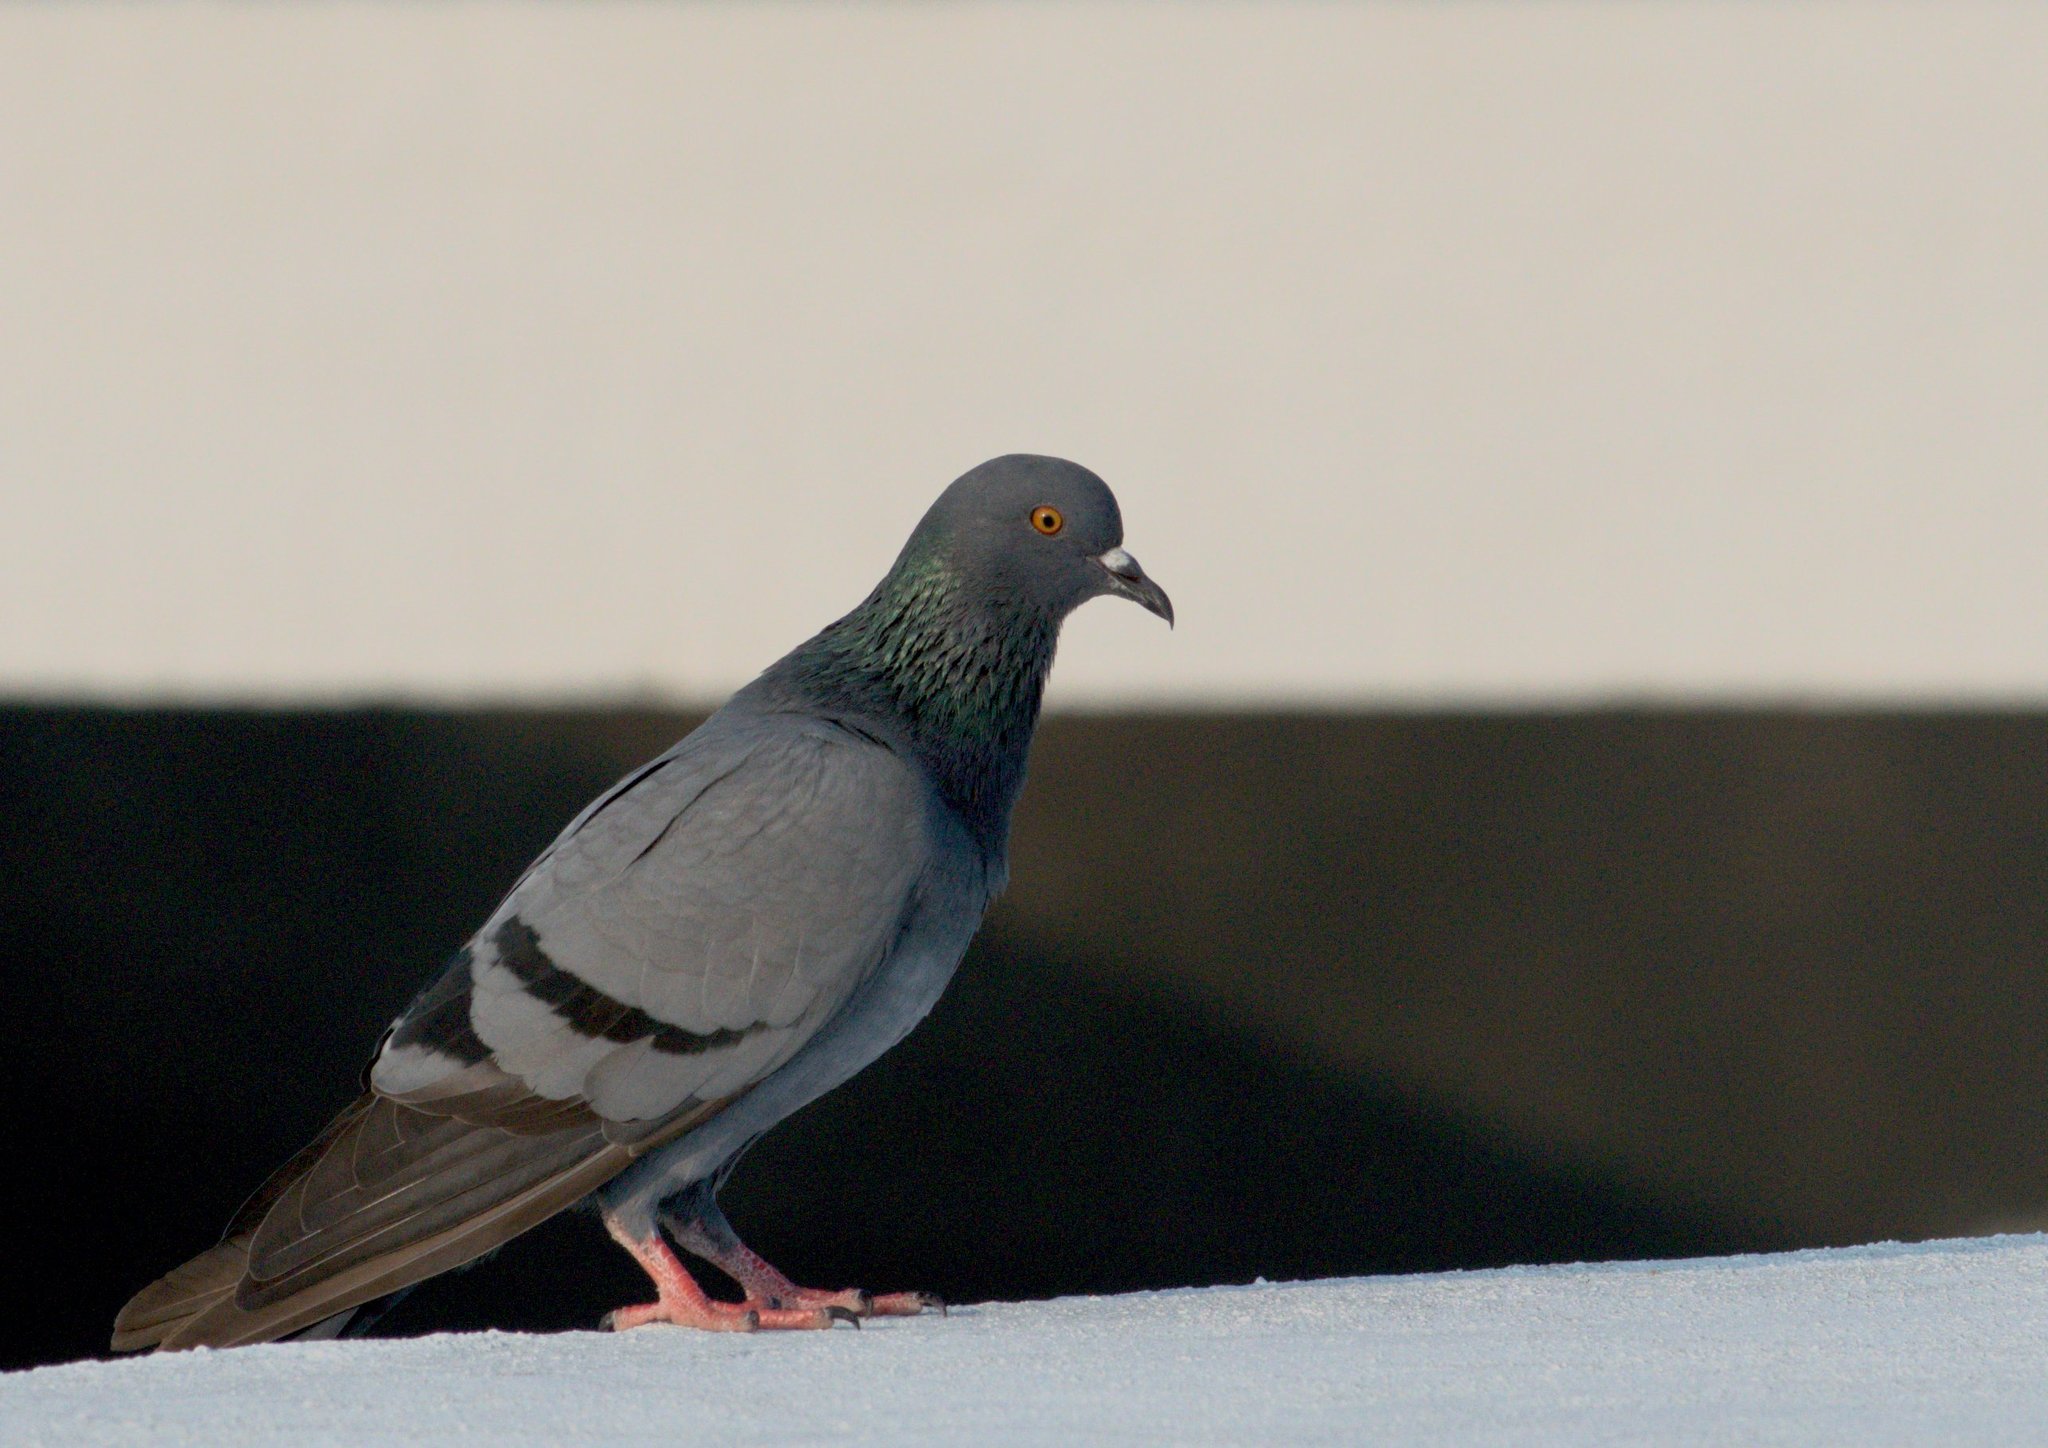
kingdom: Animalia
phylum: Chordata
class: Aves
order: Columbiformes
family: Columbidae
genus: Columba
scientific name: Columba livia
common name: Rock pigeon
